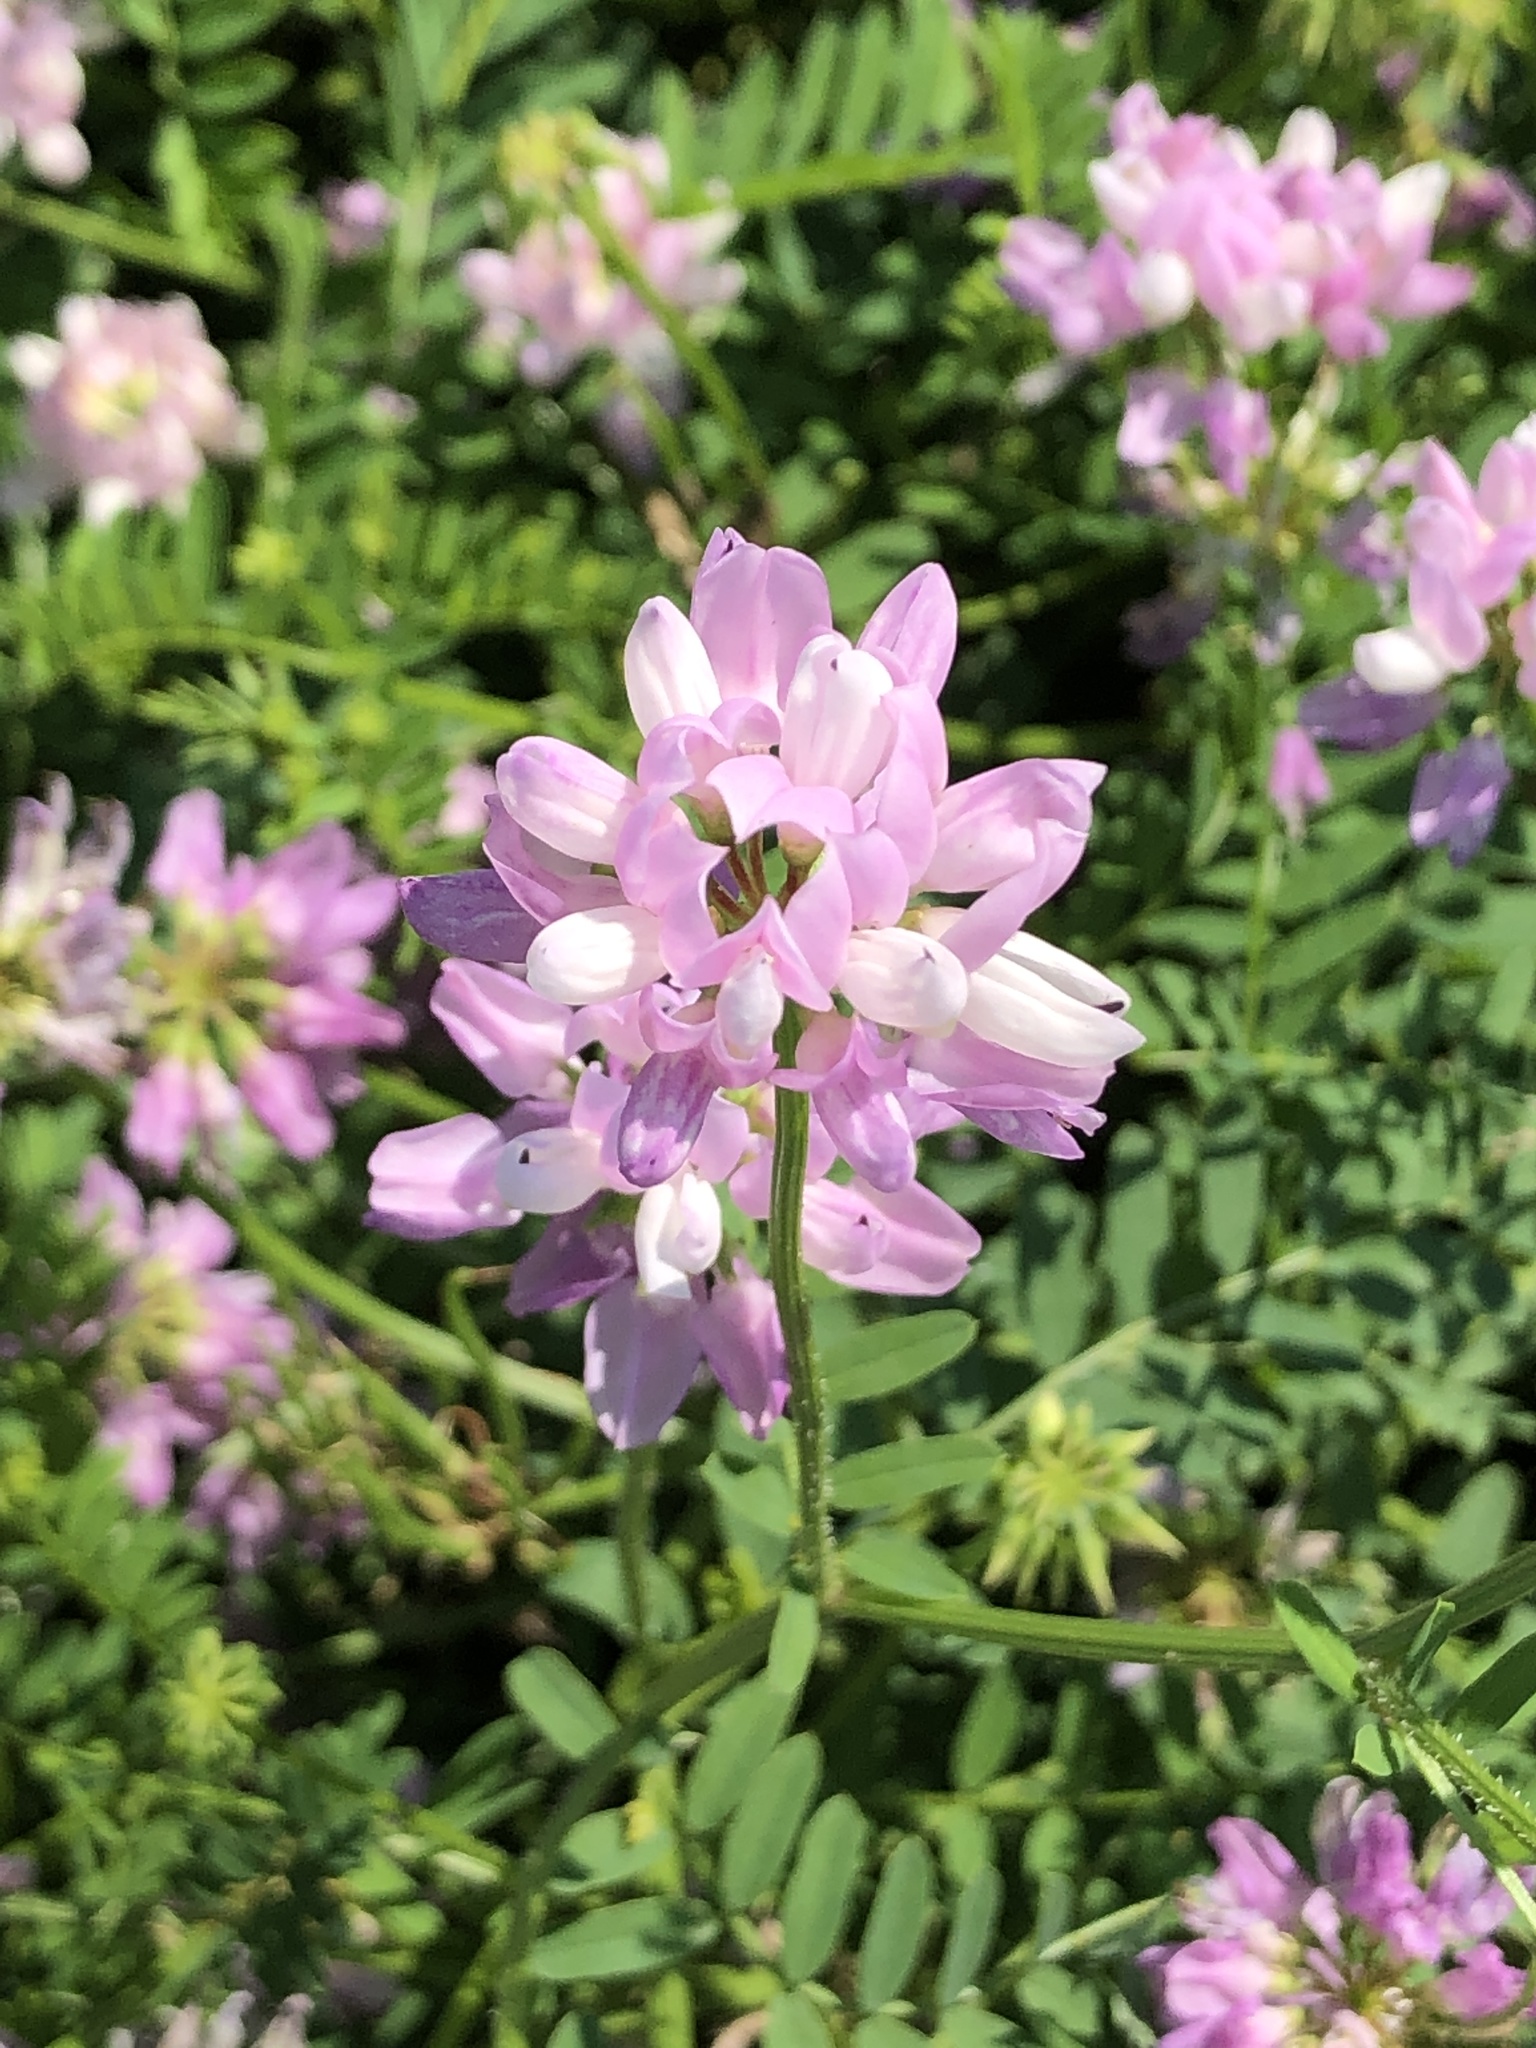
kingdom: Plantae
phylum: Tracheophyta
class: Magnoliopsida
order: Fabales
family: Fabaceae
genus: Coronilla
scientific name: Coronilla varia
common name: Crownvetch
